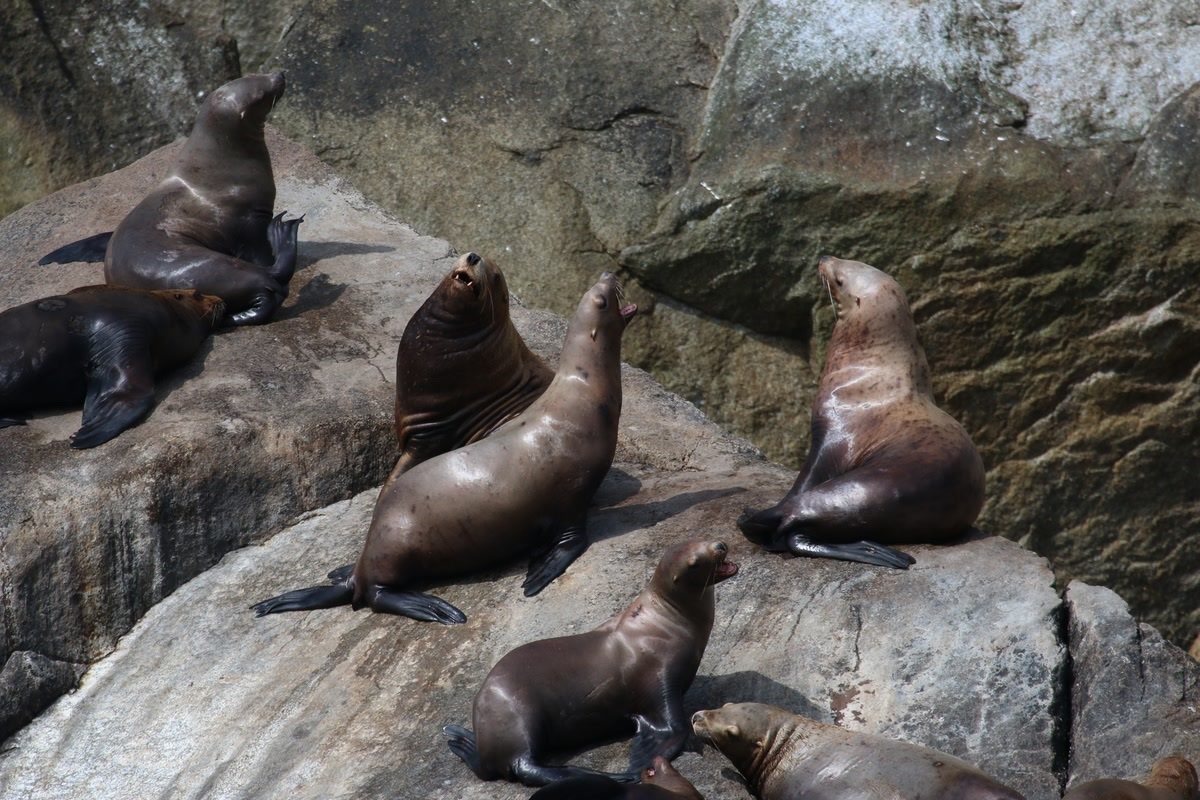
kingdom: Animalia
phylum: Chordata
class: Mammalia
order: Carnivora
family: Otariidae
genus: Eumetopias
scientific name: Eumetopias jubatus
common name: Steller sea lion
